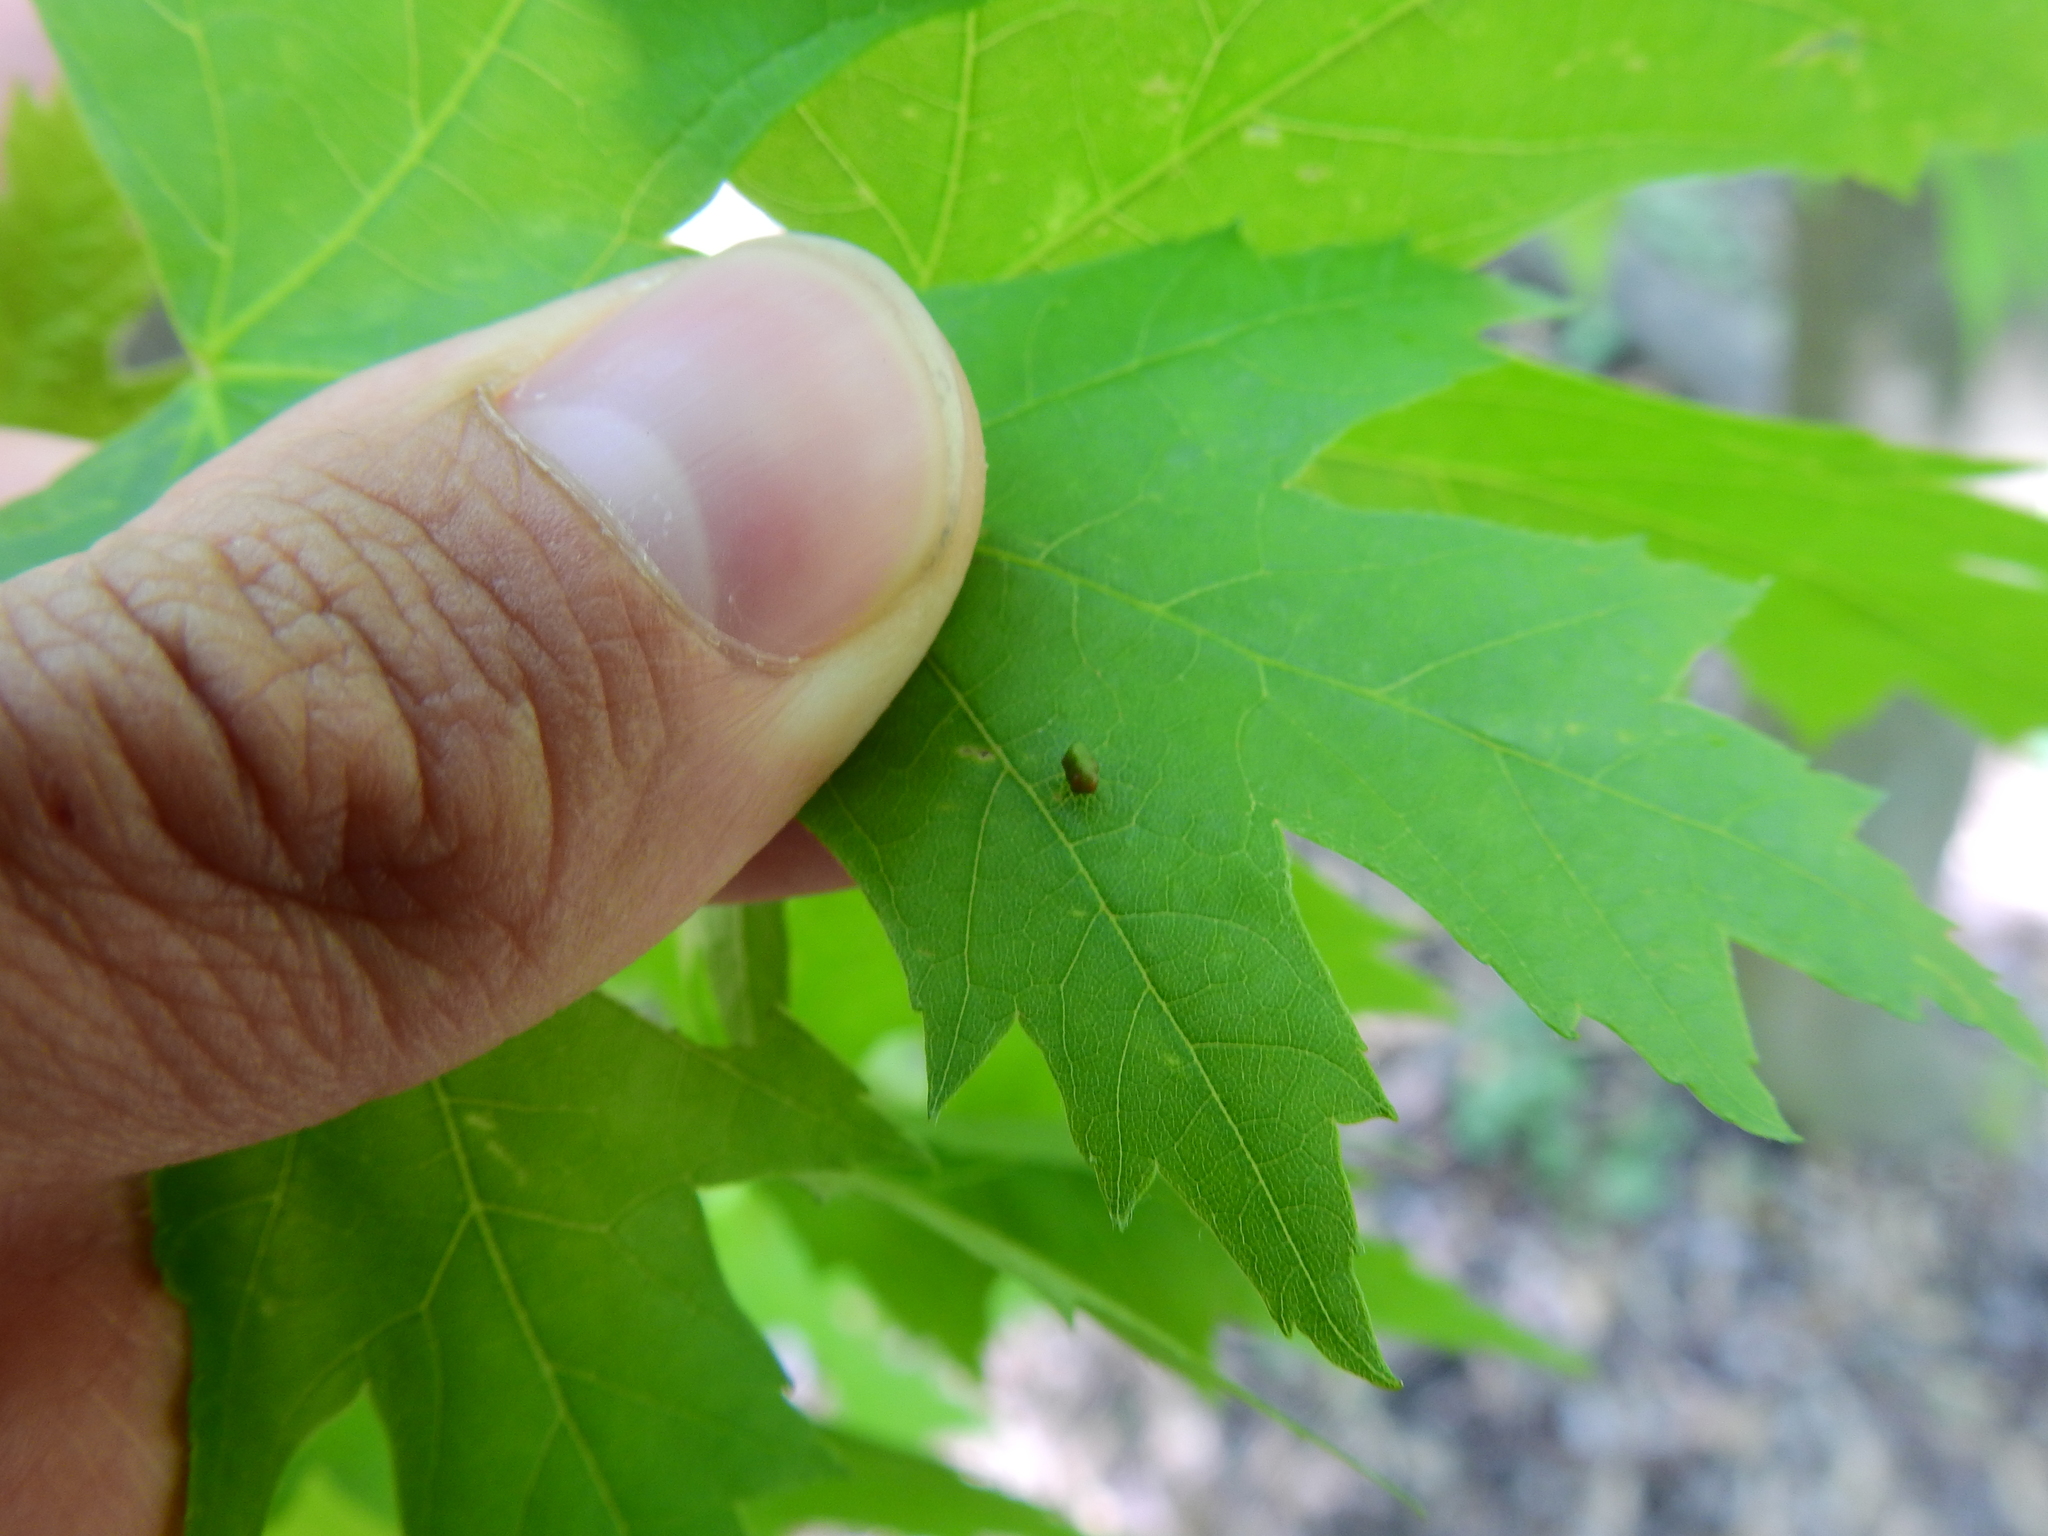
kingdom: Animalia
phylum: Arthropoda
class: Arachnida
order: Trombidiformes
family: Eriophyidae
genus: Vasates
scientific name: Vasates quadripedes
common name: Maple bladder gall mite
